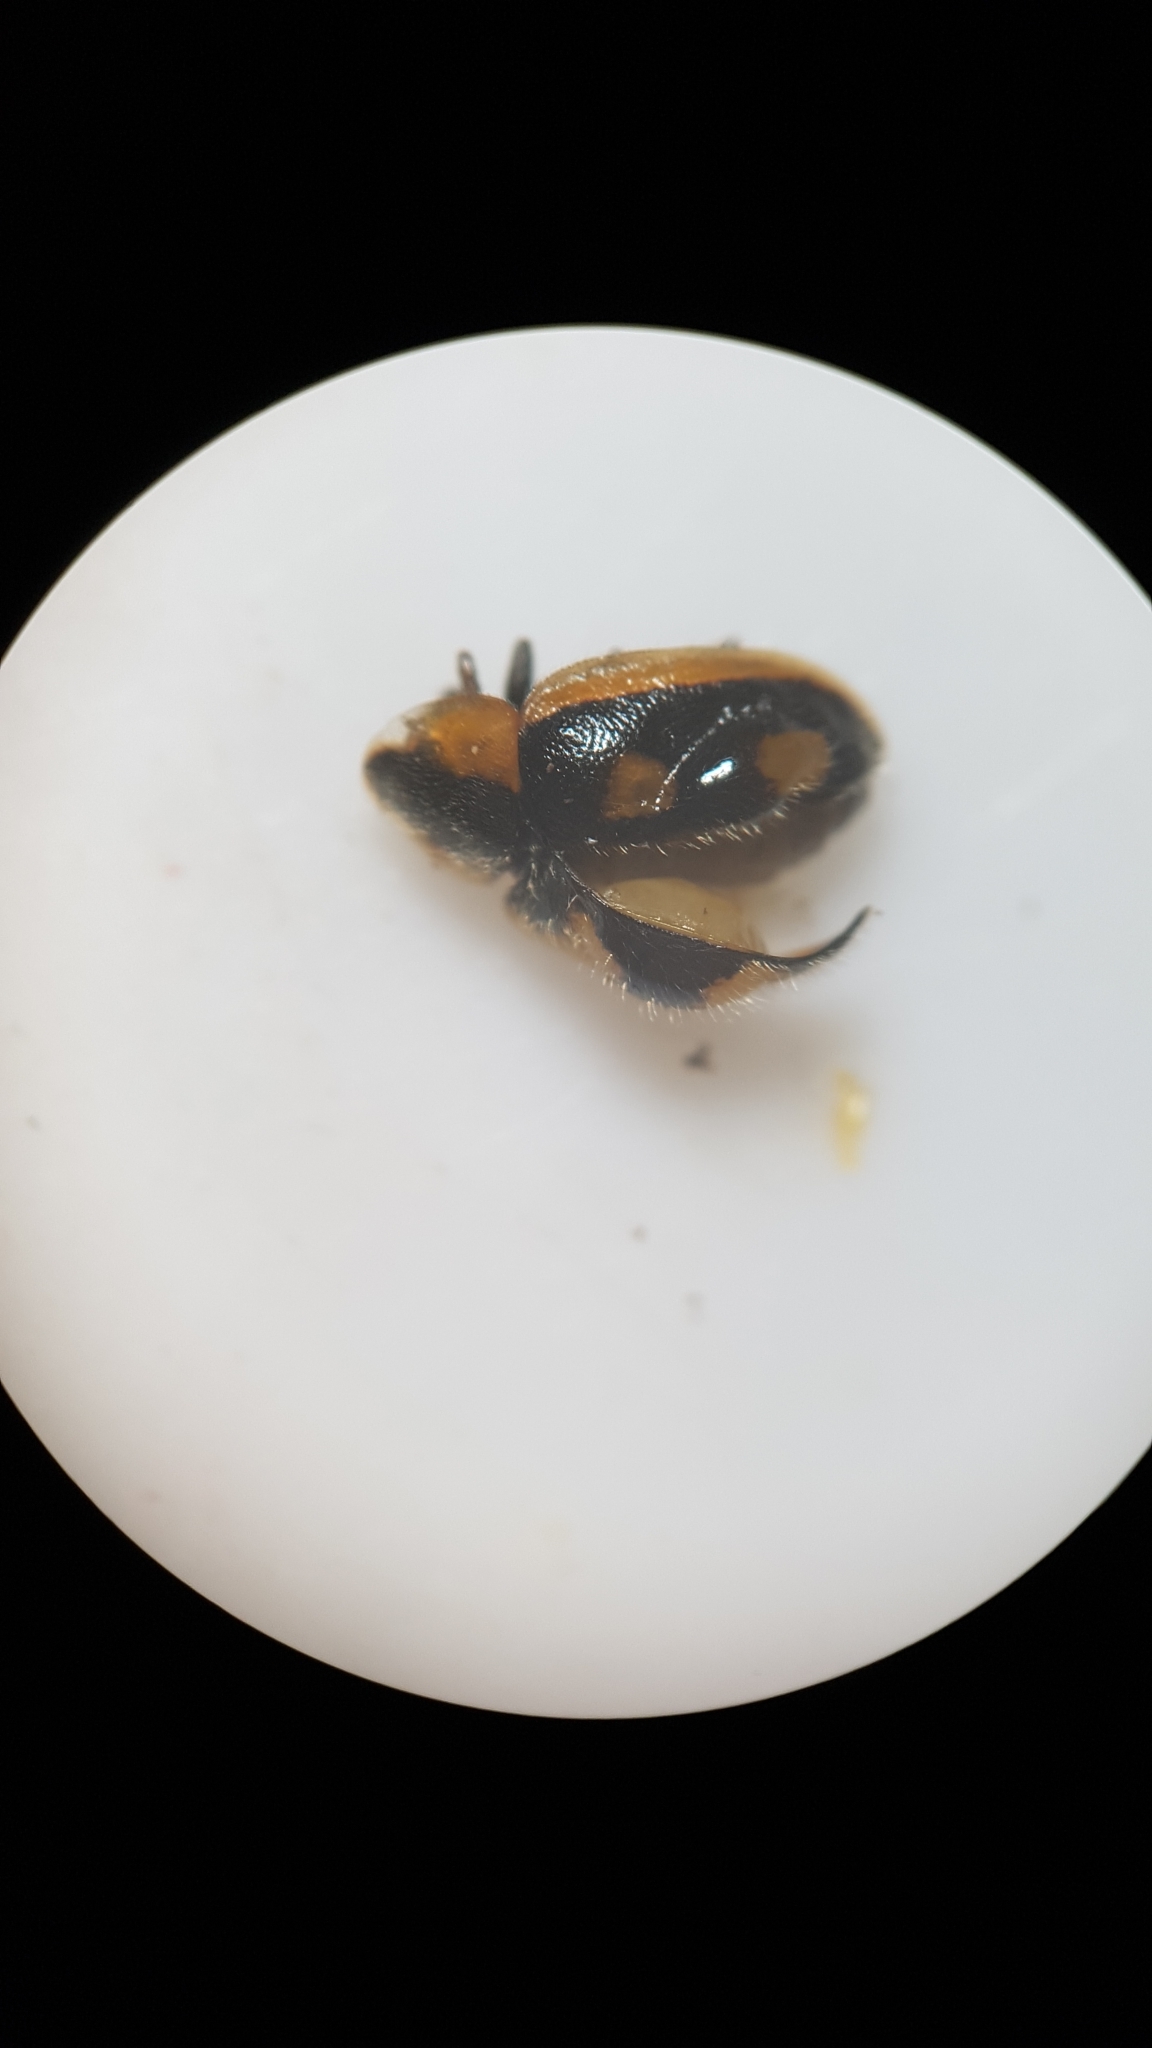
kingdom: Animalia
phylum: Arthropoda
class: Insecta
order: Coleoptera
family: Coccinellidae
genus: Hoangus
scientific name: Hoangus
